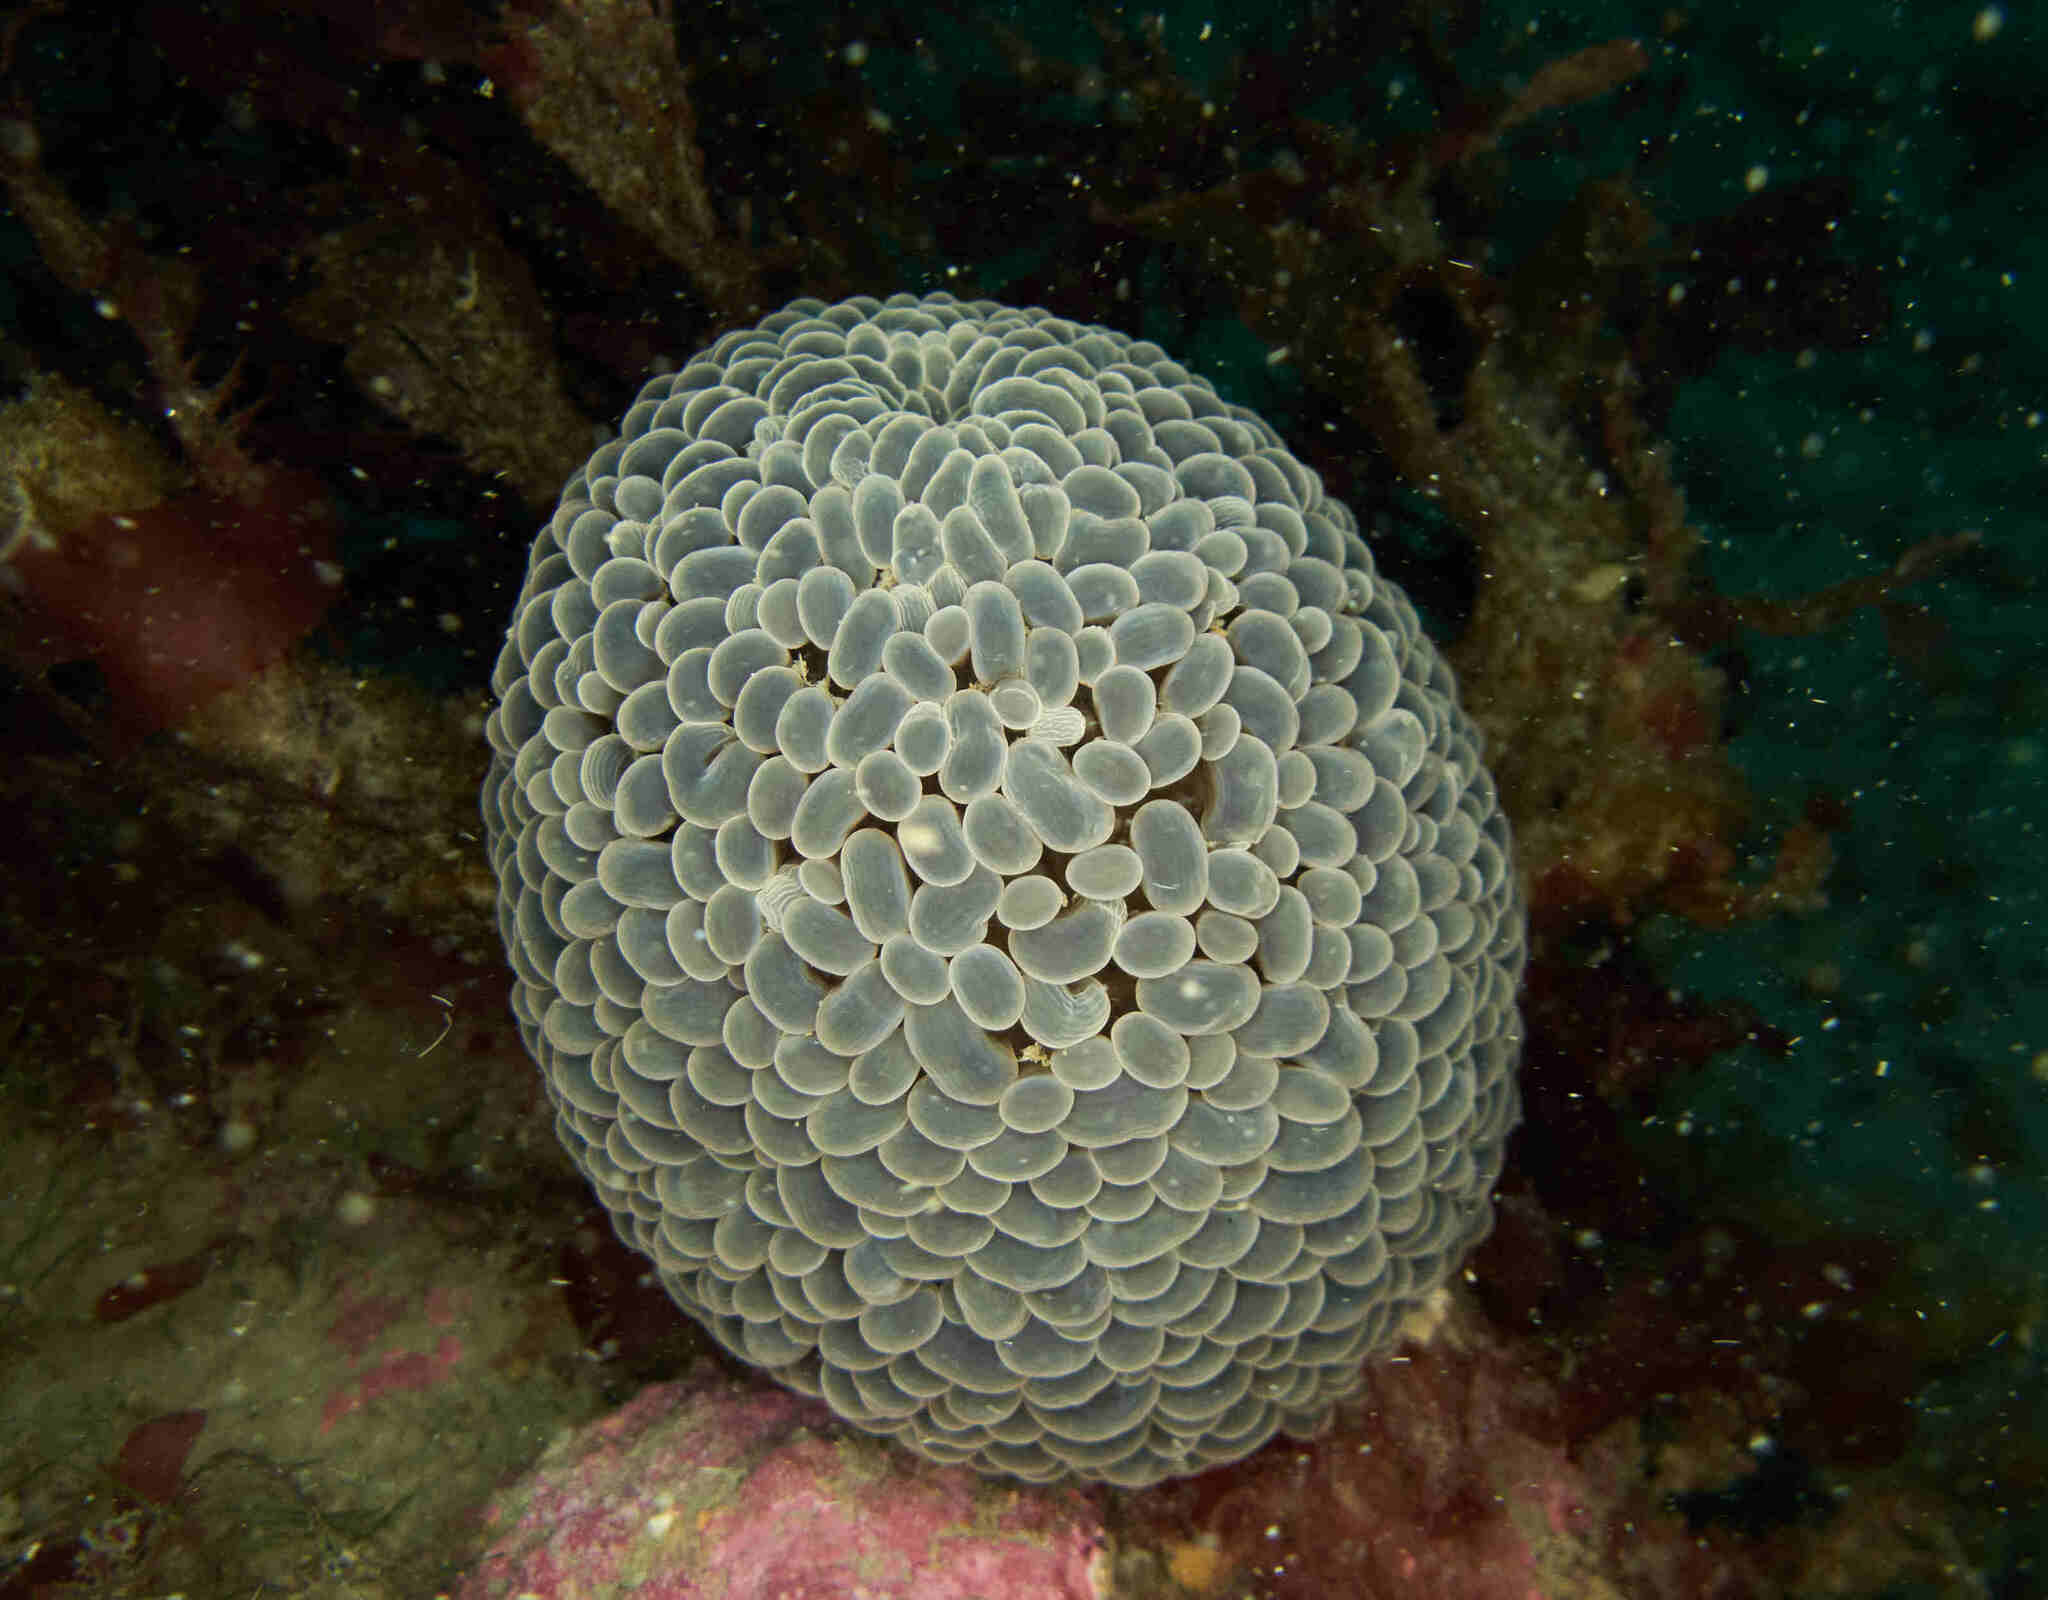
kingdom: Animalia
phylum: Cnidaria
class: Anthozoa
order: Actiniaria
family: Actiniidae
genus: Phlyctenactis
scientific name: Phlyctenactis tuberculosa
